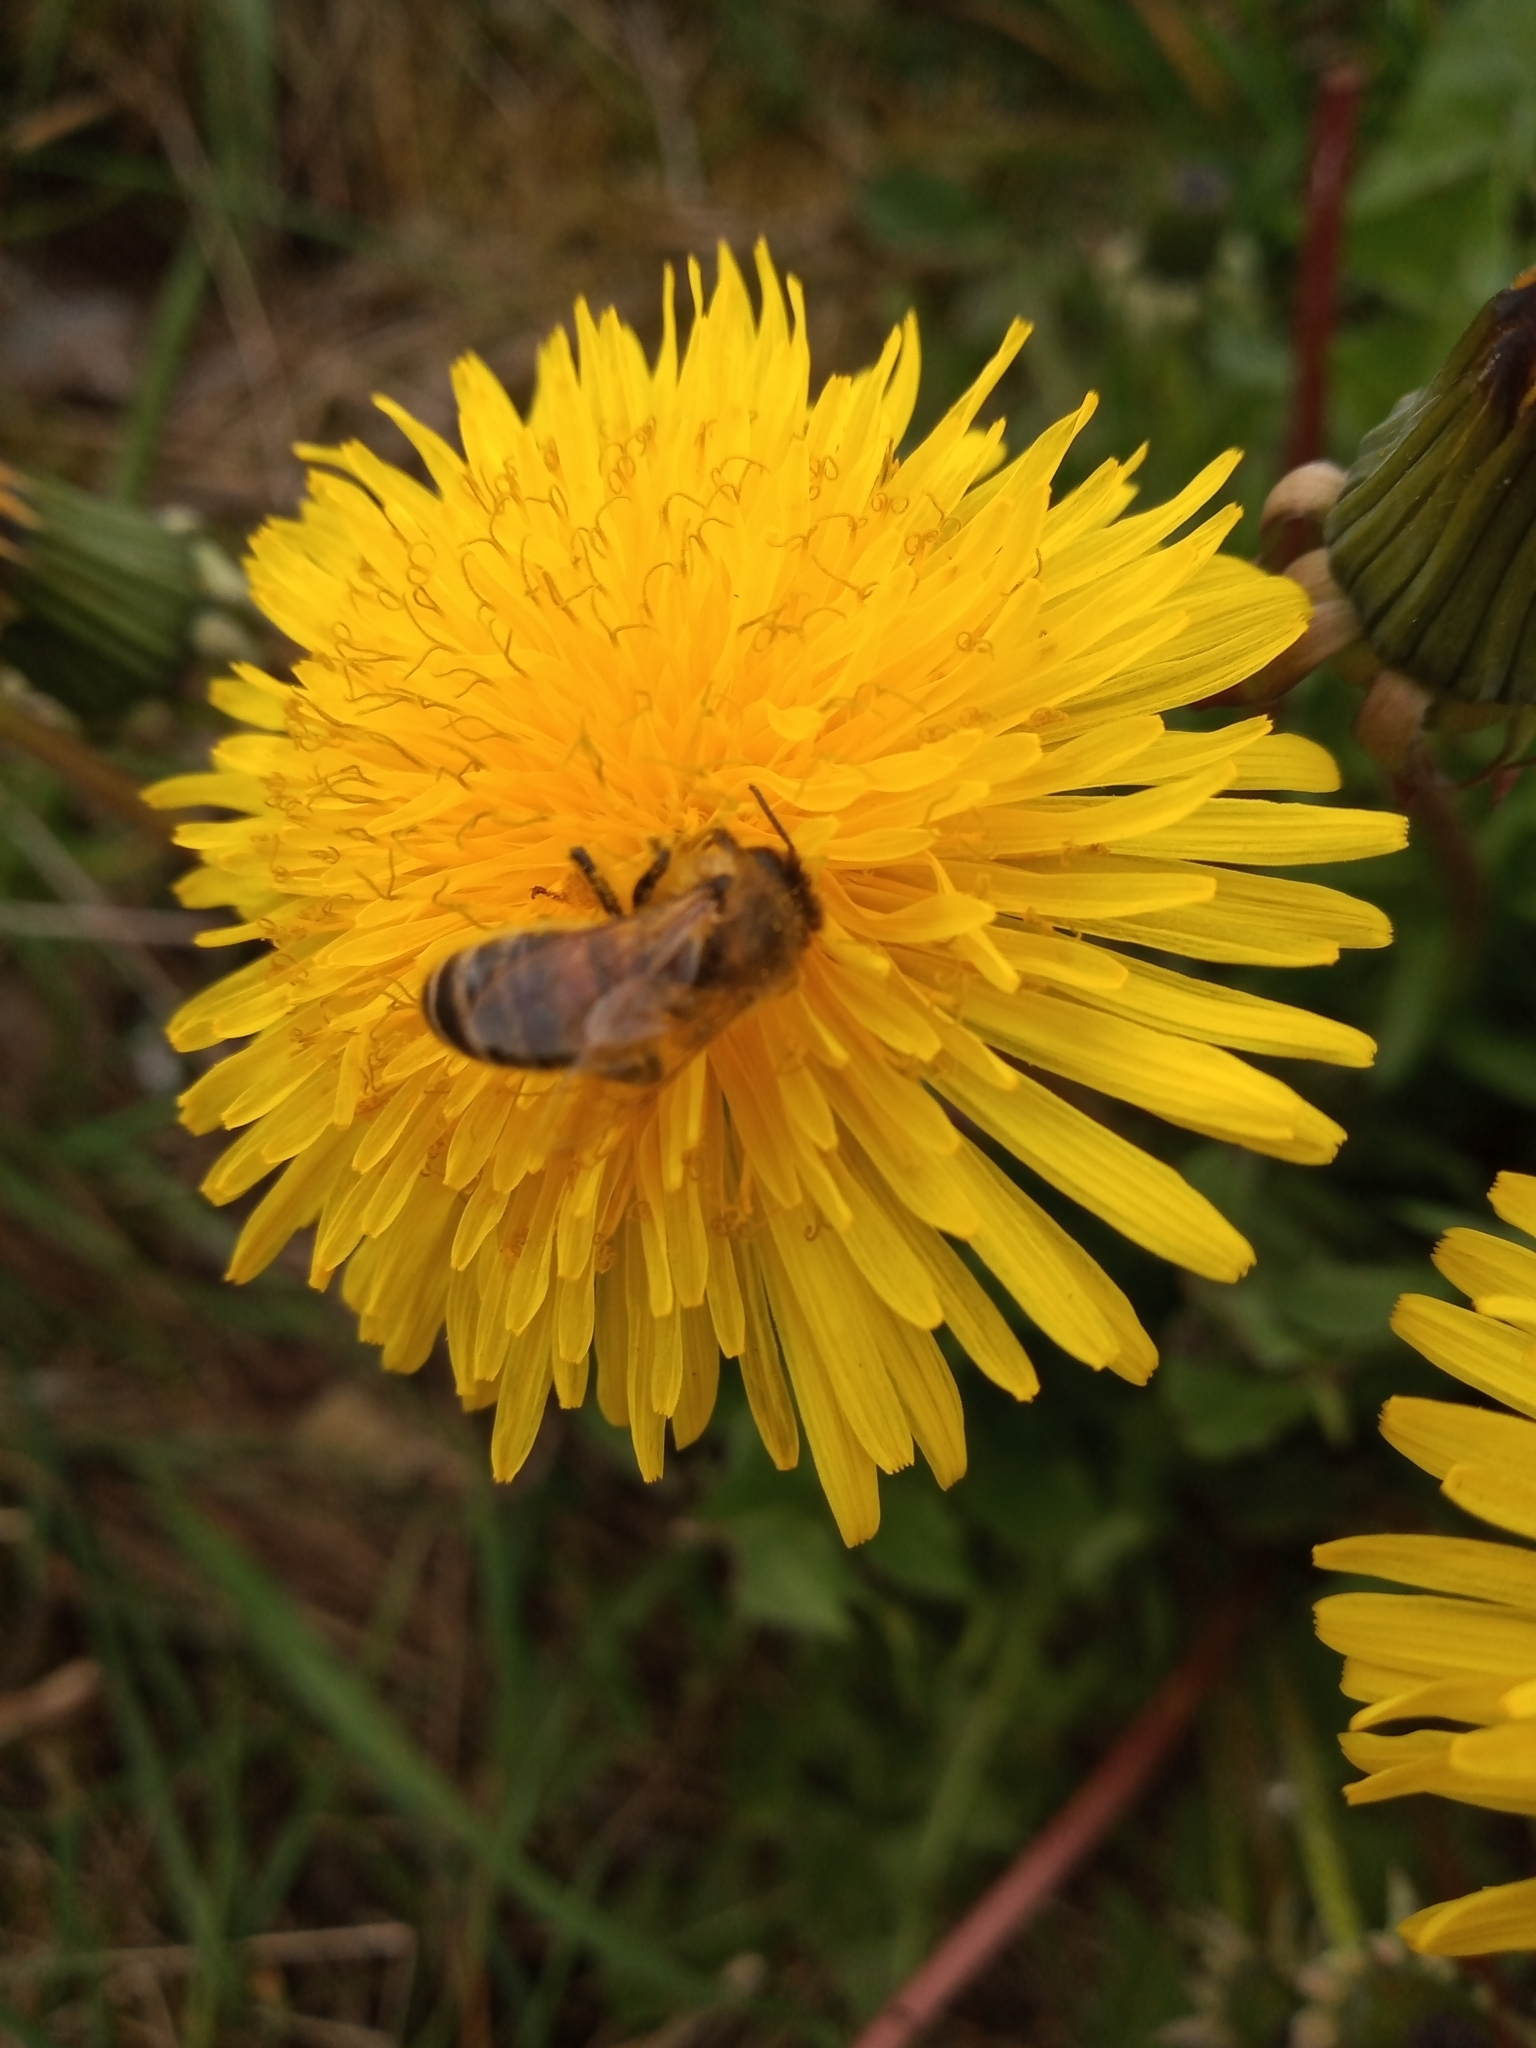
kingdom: Animalia
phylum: Arthropoda
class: Insecta
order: Hymenoptera
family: Apidae
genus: Apis
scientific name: Apis mellifera
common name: Honey bee
